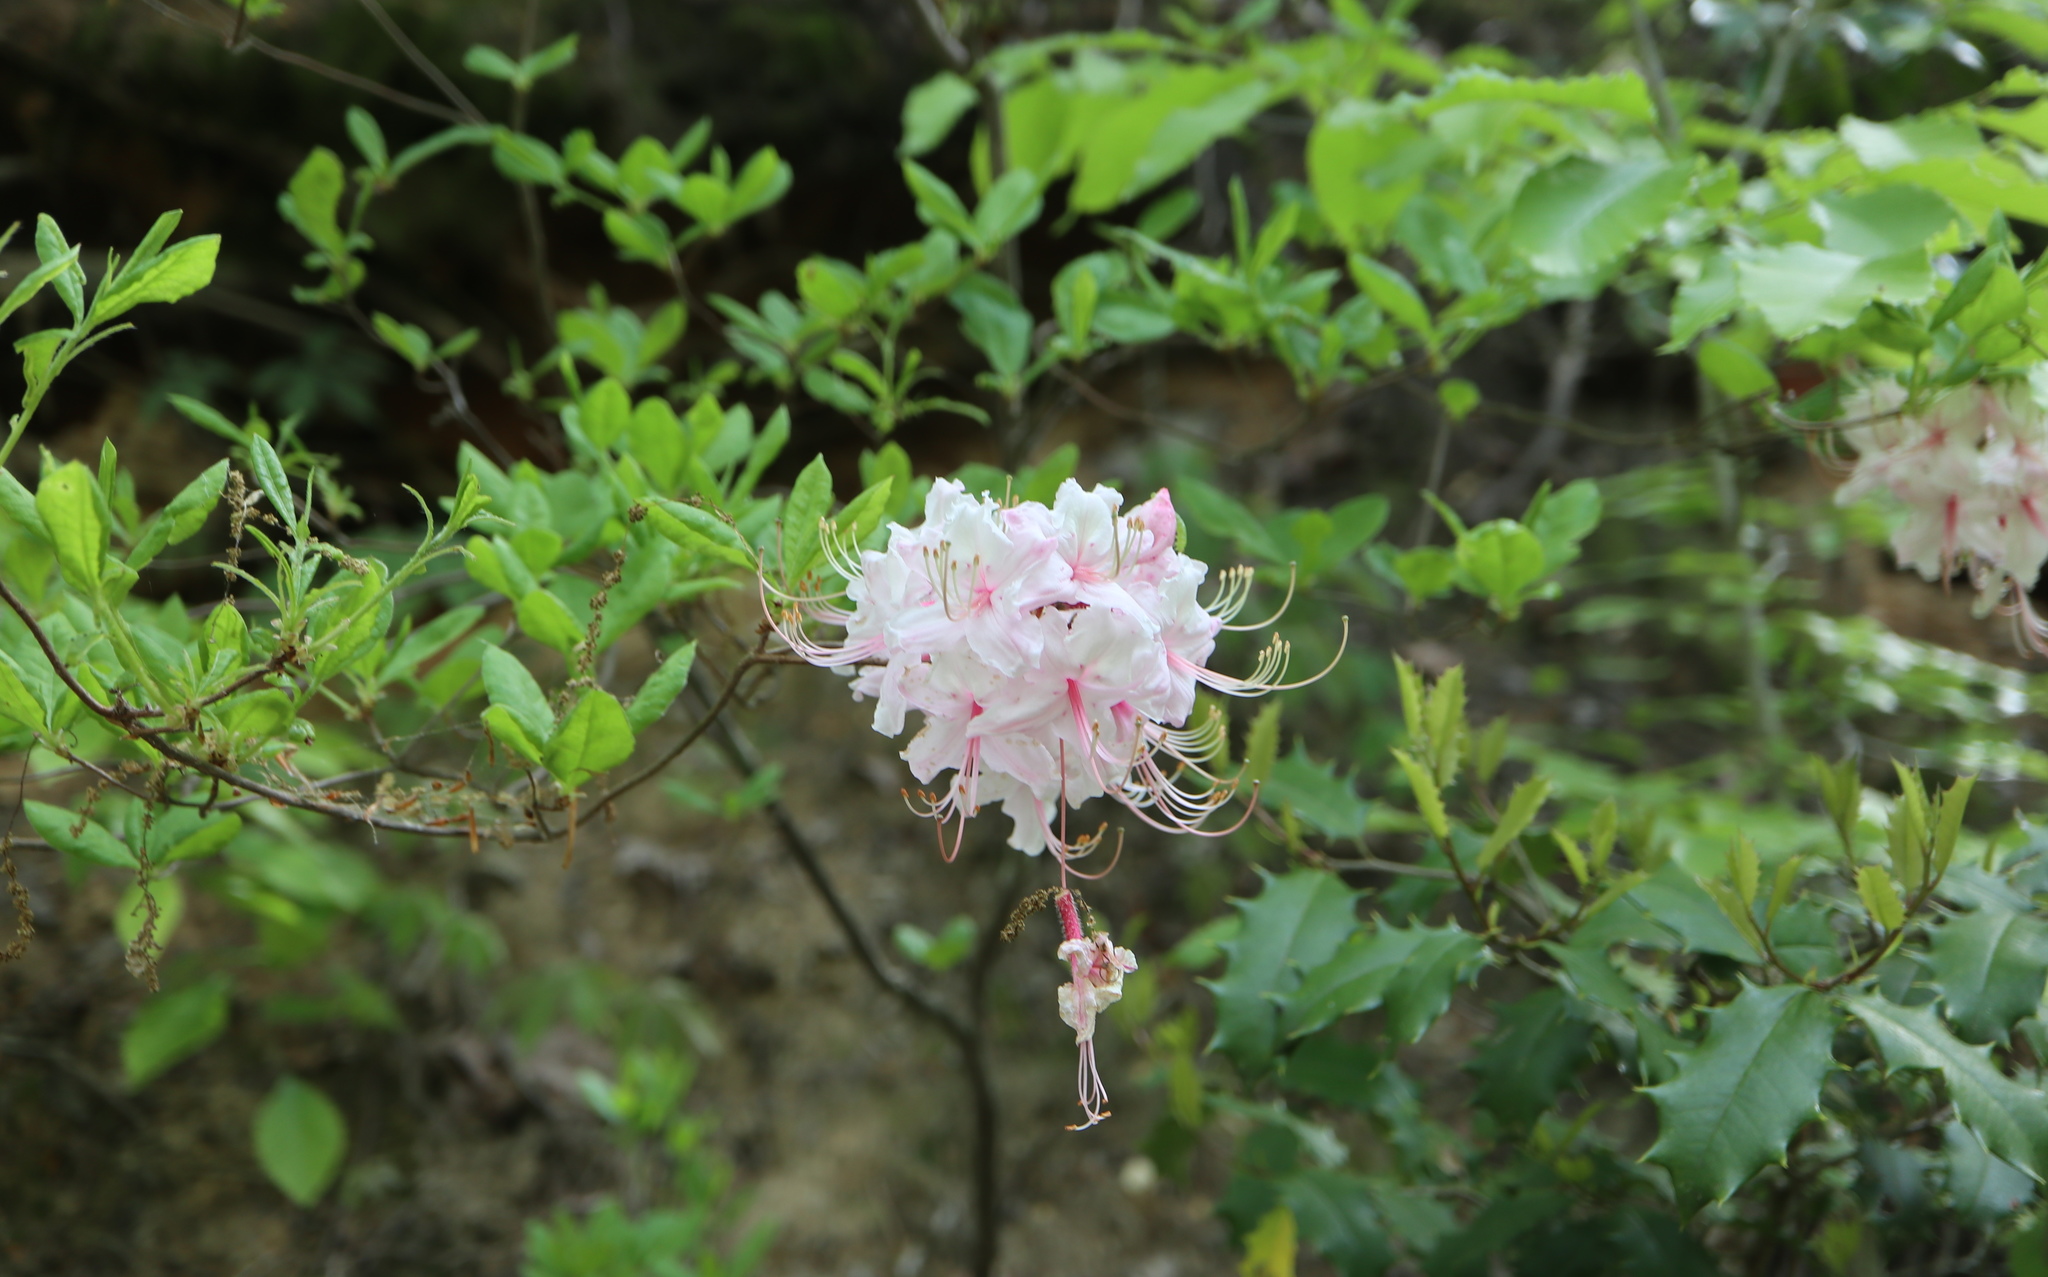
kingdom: Plantae
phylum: Tracheophyta
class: Magnoliopsida
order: Ericales
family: Ericaceae
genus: Rhododendron
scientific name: Rhododendron periclymenoides
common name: Election-pink
